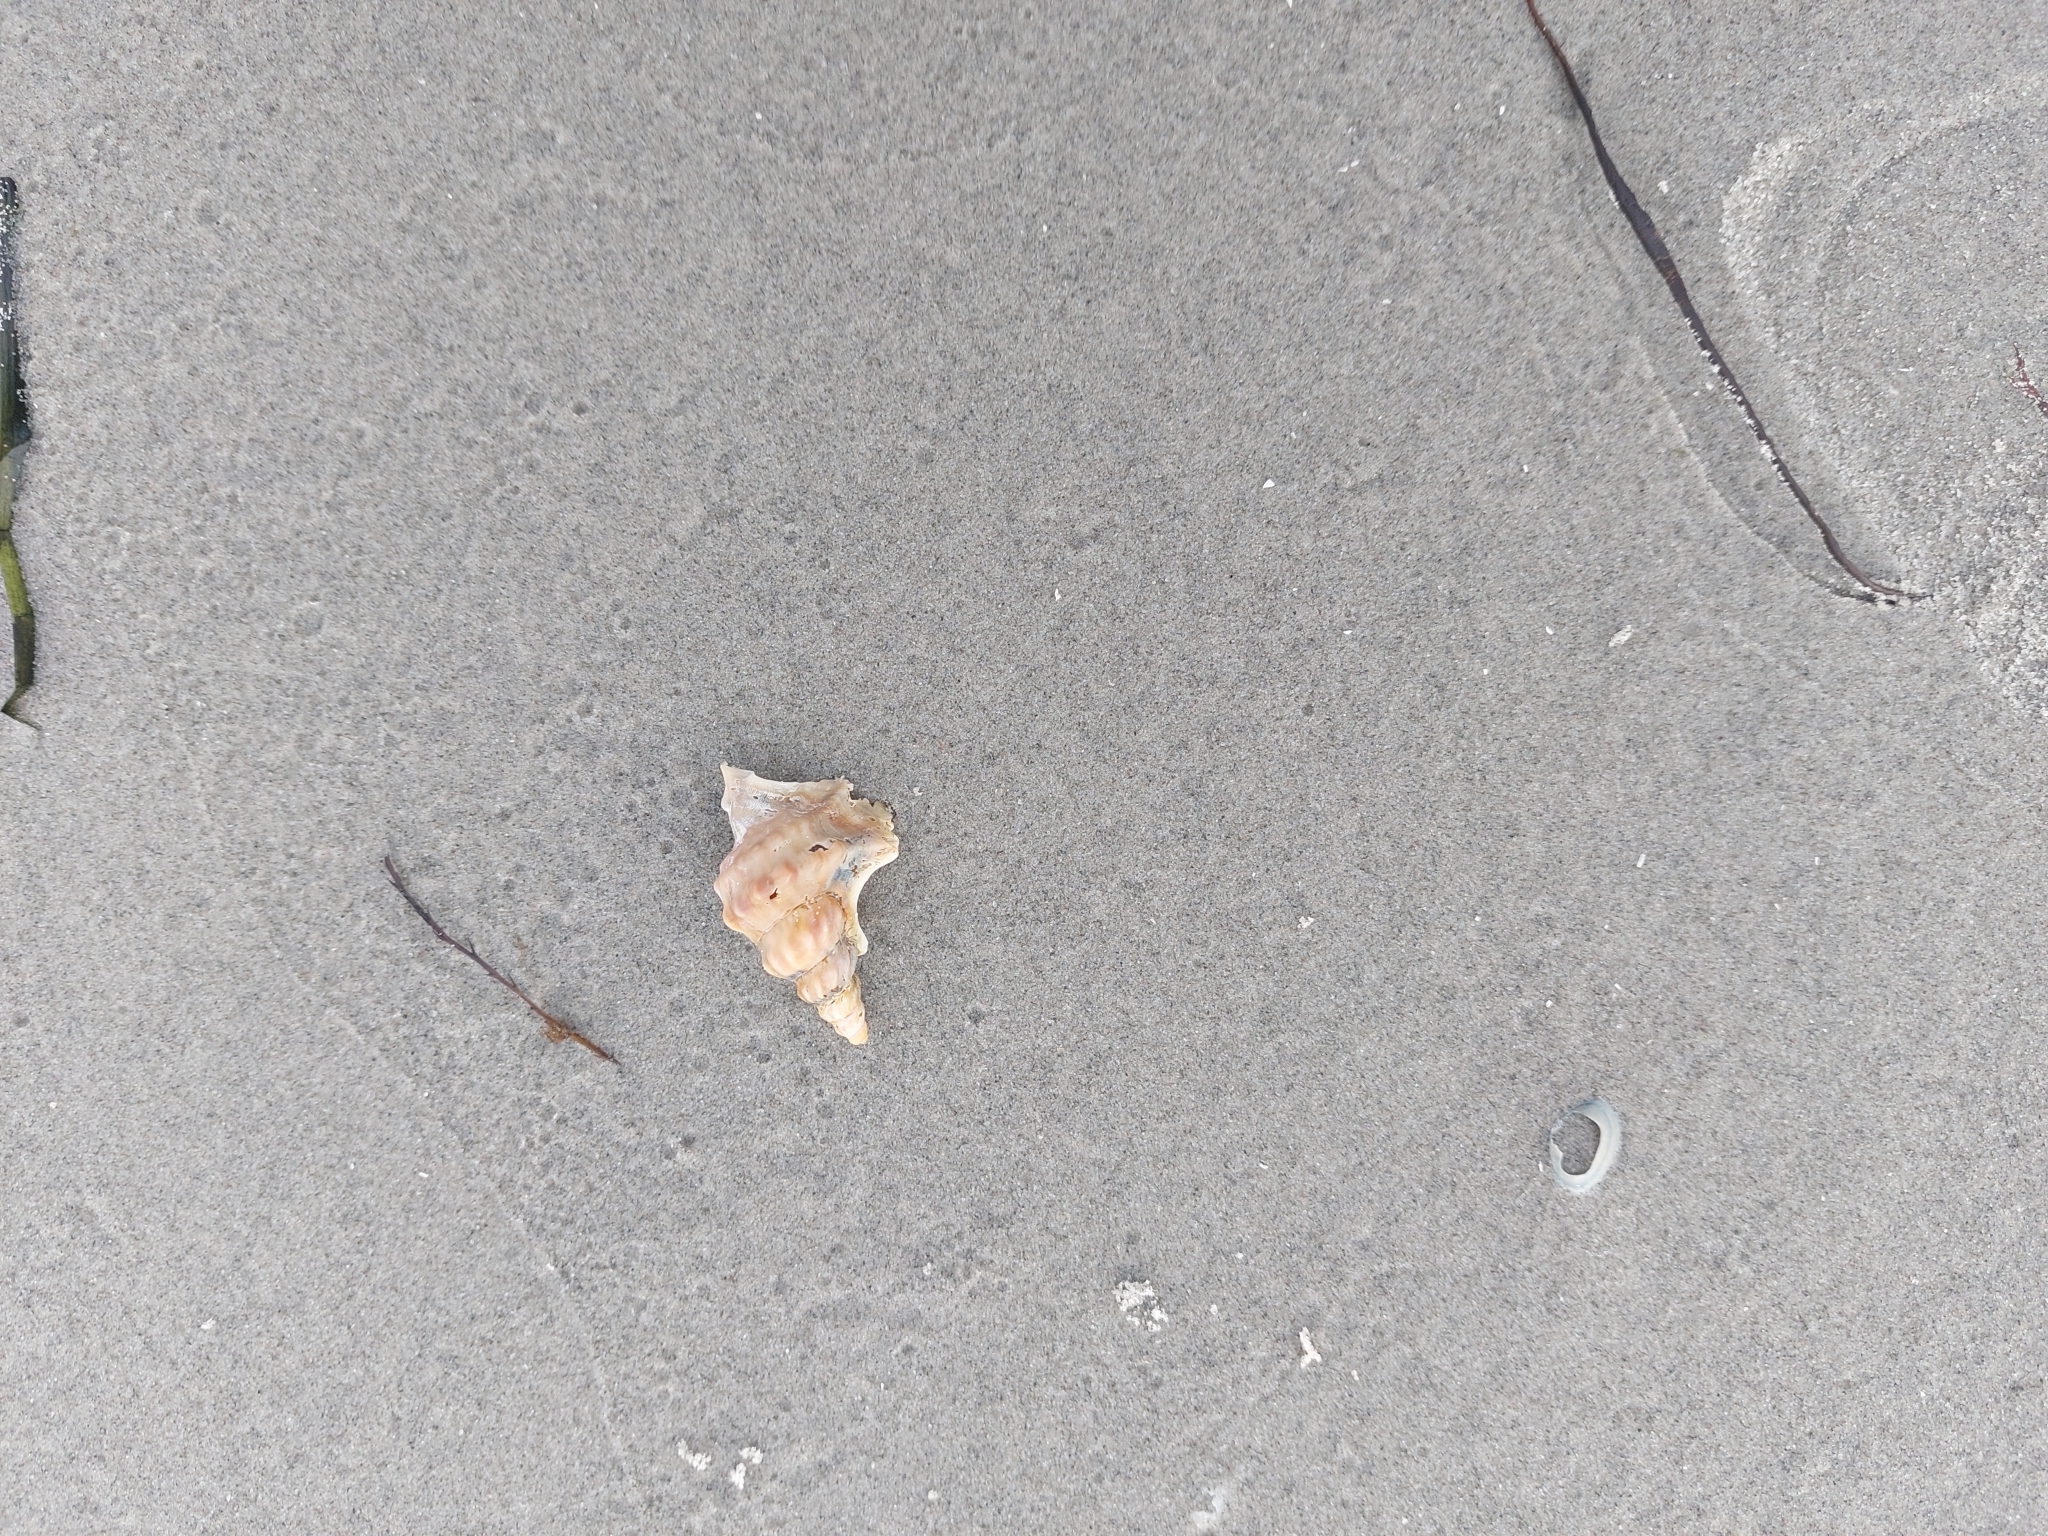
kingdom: Animalia
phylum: Mollusca
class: Gastropoda
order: Littorinimorpha
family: Aporrhaidae
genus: Aporrhais
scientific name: Aporrhais pespelecani
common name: Common pelican’s foot
